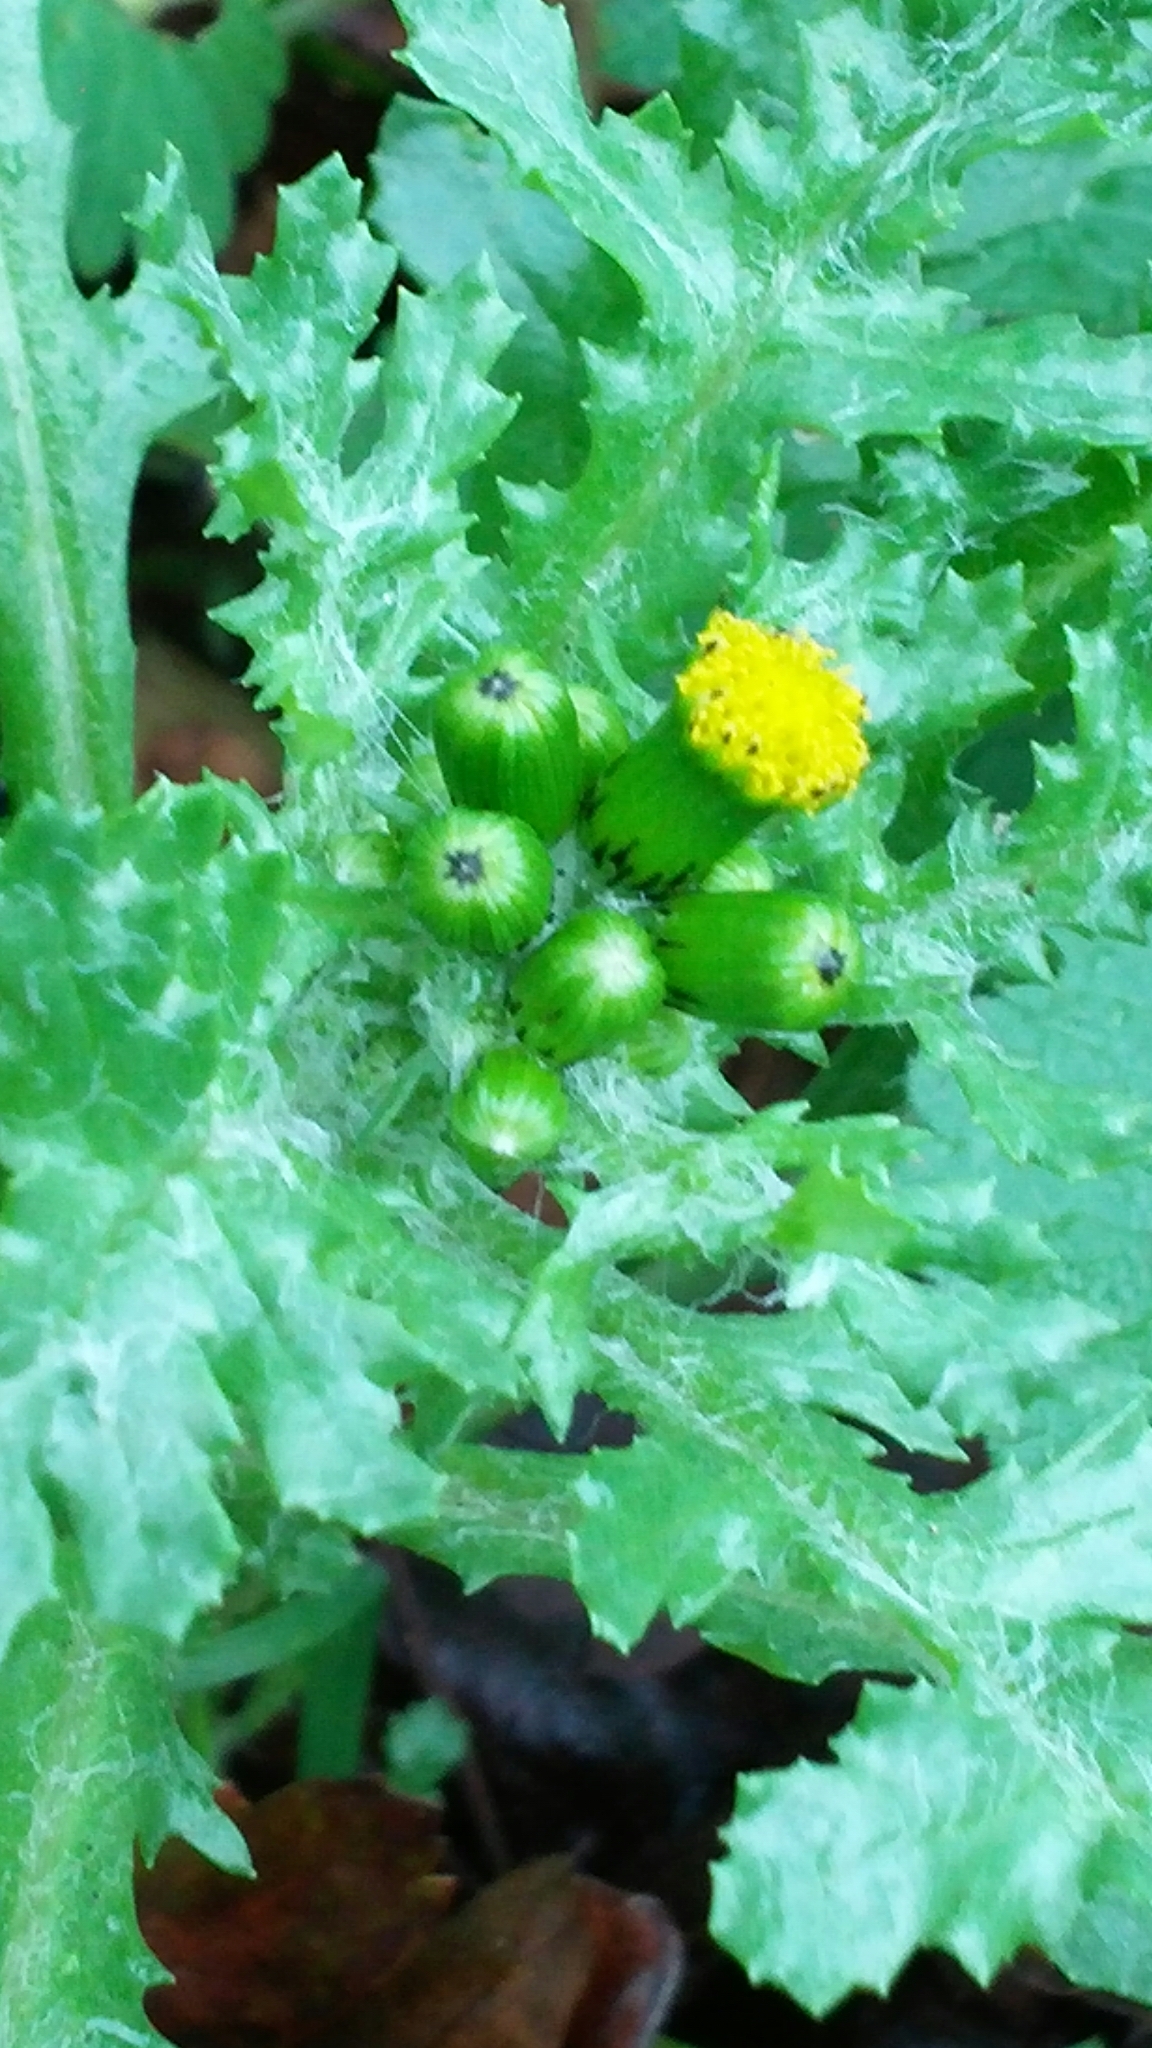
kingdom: Plantae
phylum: Tracheophyta
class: Magnoliopsida
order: Asterales
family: Asteraceae
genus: Senecio
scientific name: Senecio vulgaris
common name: Old-man-in-the-spring
